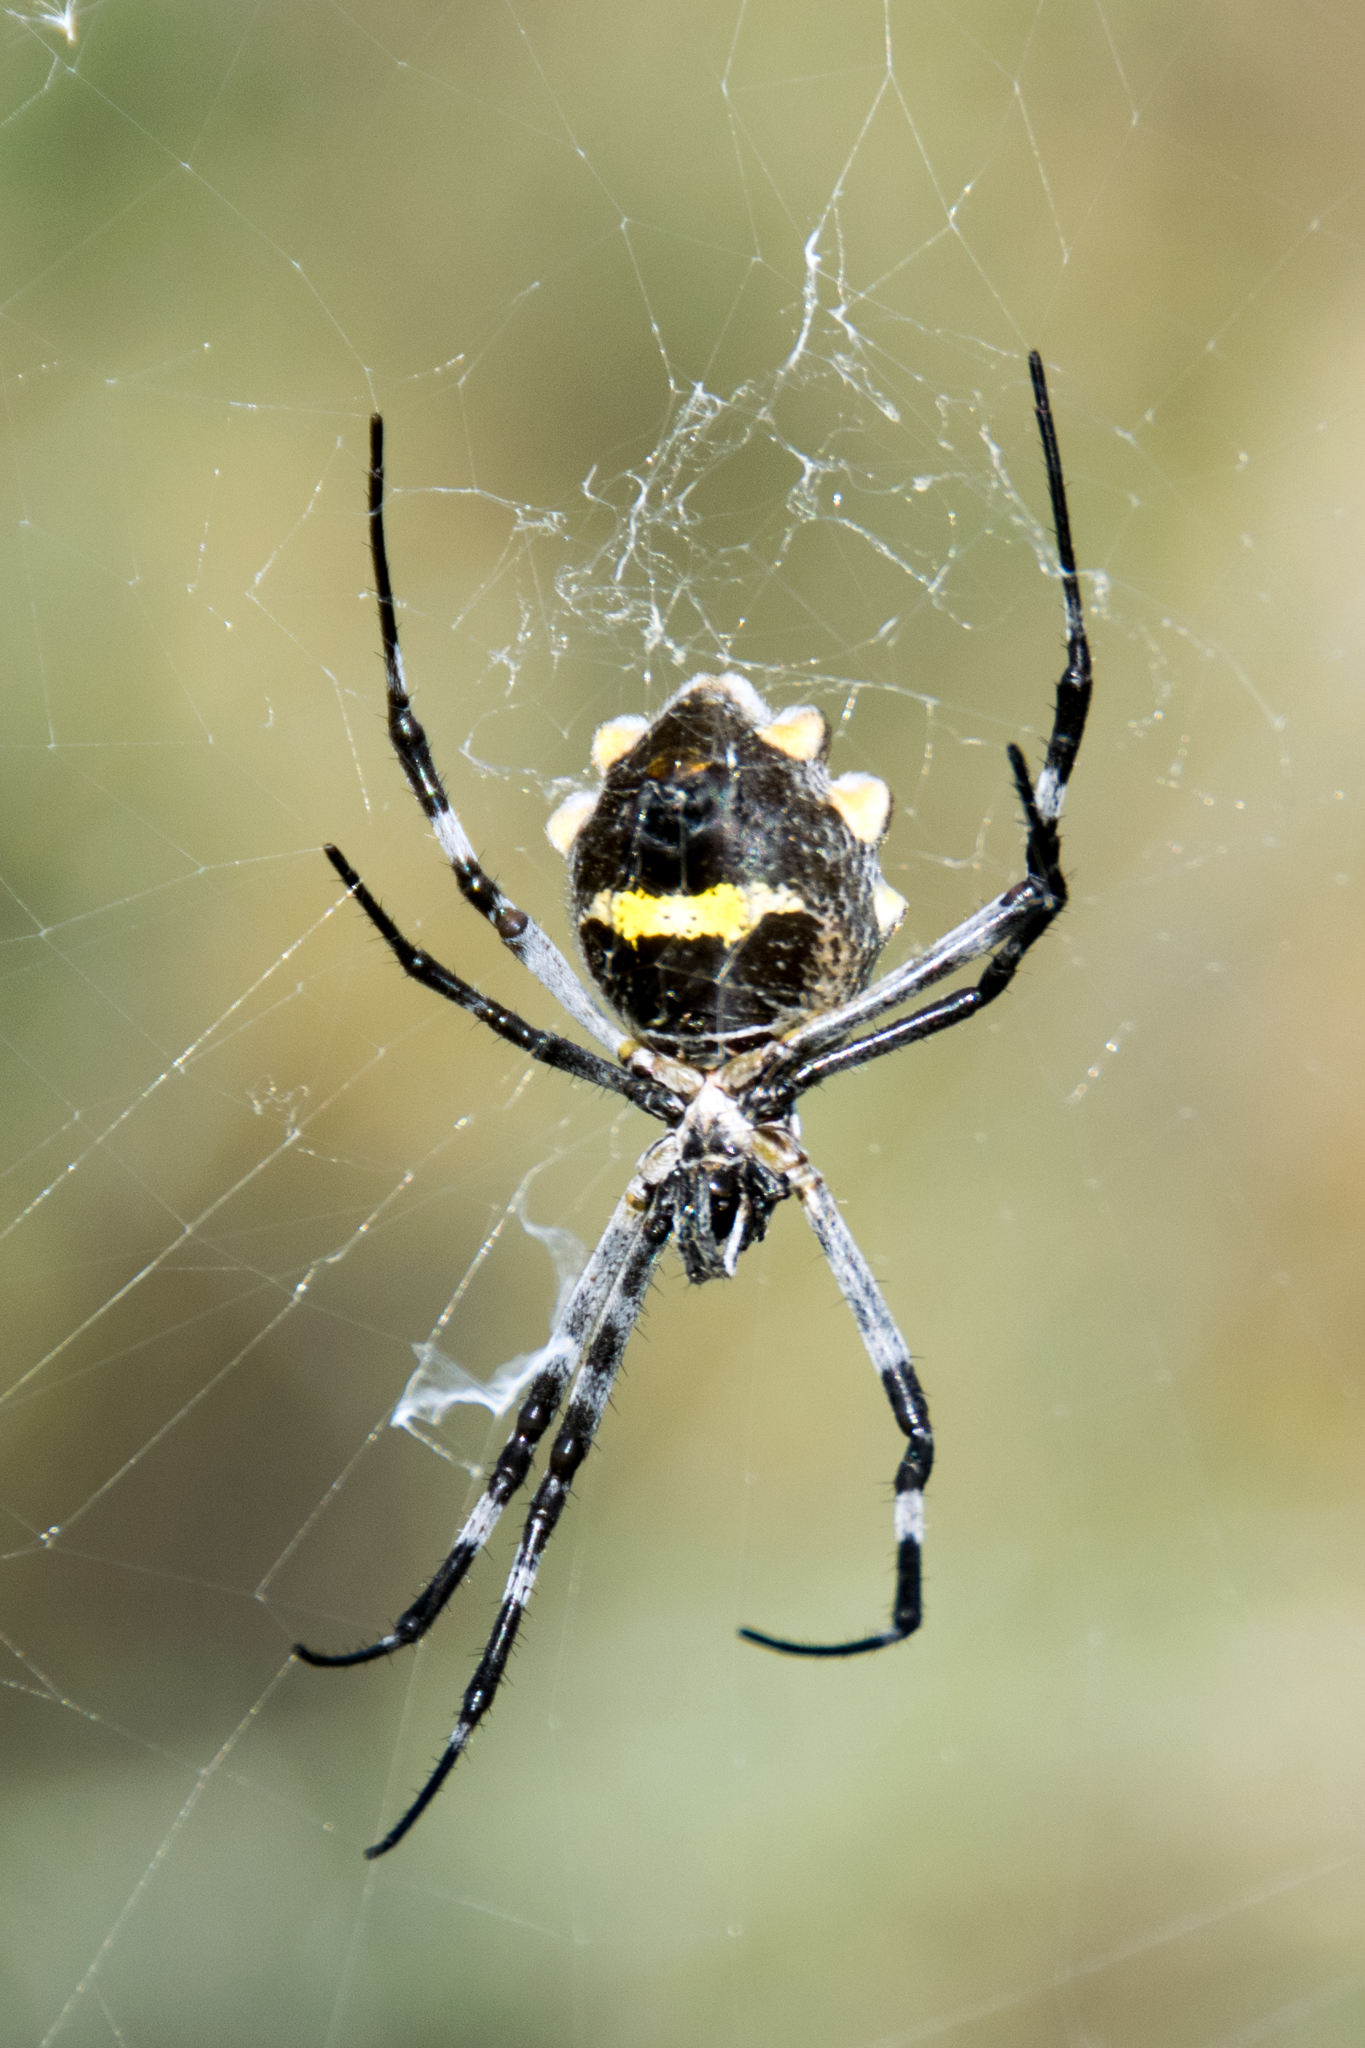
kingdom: Animalia
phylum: Arthropoda
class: Arachnida
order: Araneae
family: Araneidae
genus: Argiope
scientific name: Argiope argentata
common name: Orb weavers
